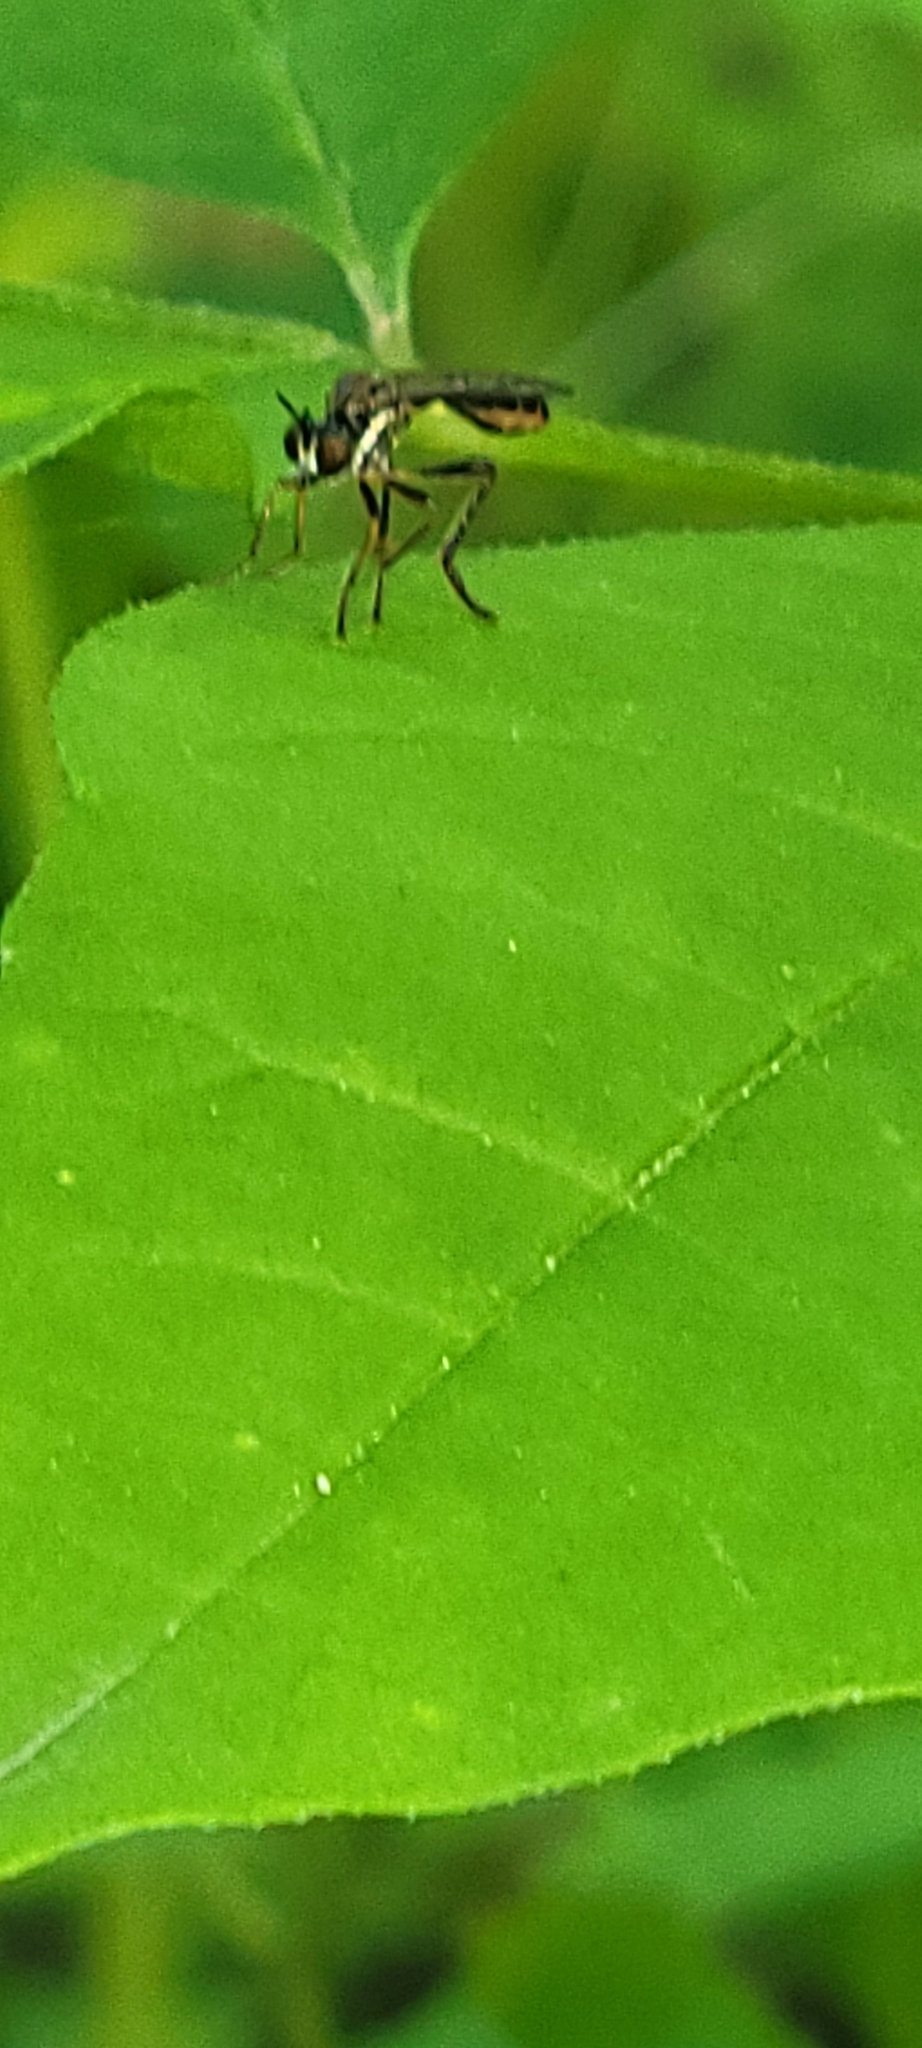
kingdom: Animalia
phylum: Arthropoda
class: Insecta
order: Diptera
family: Asilidae
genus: Dioctria
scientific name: Dioctria hyalipennis
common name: Stripe-legged robberfly
